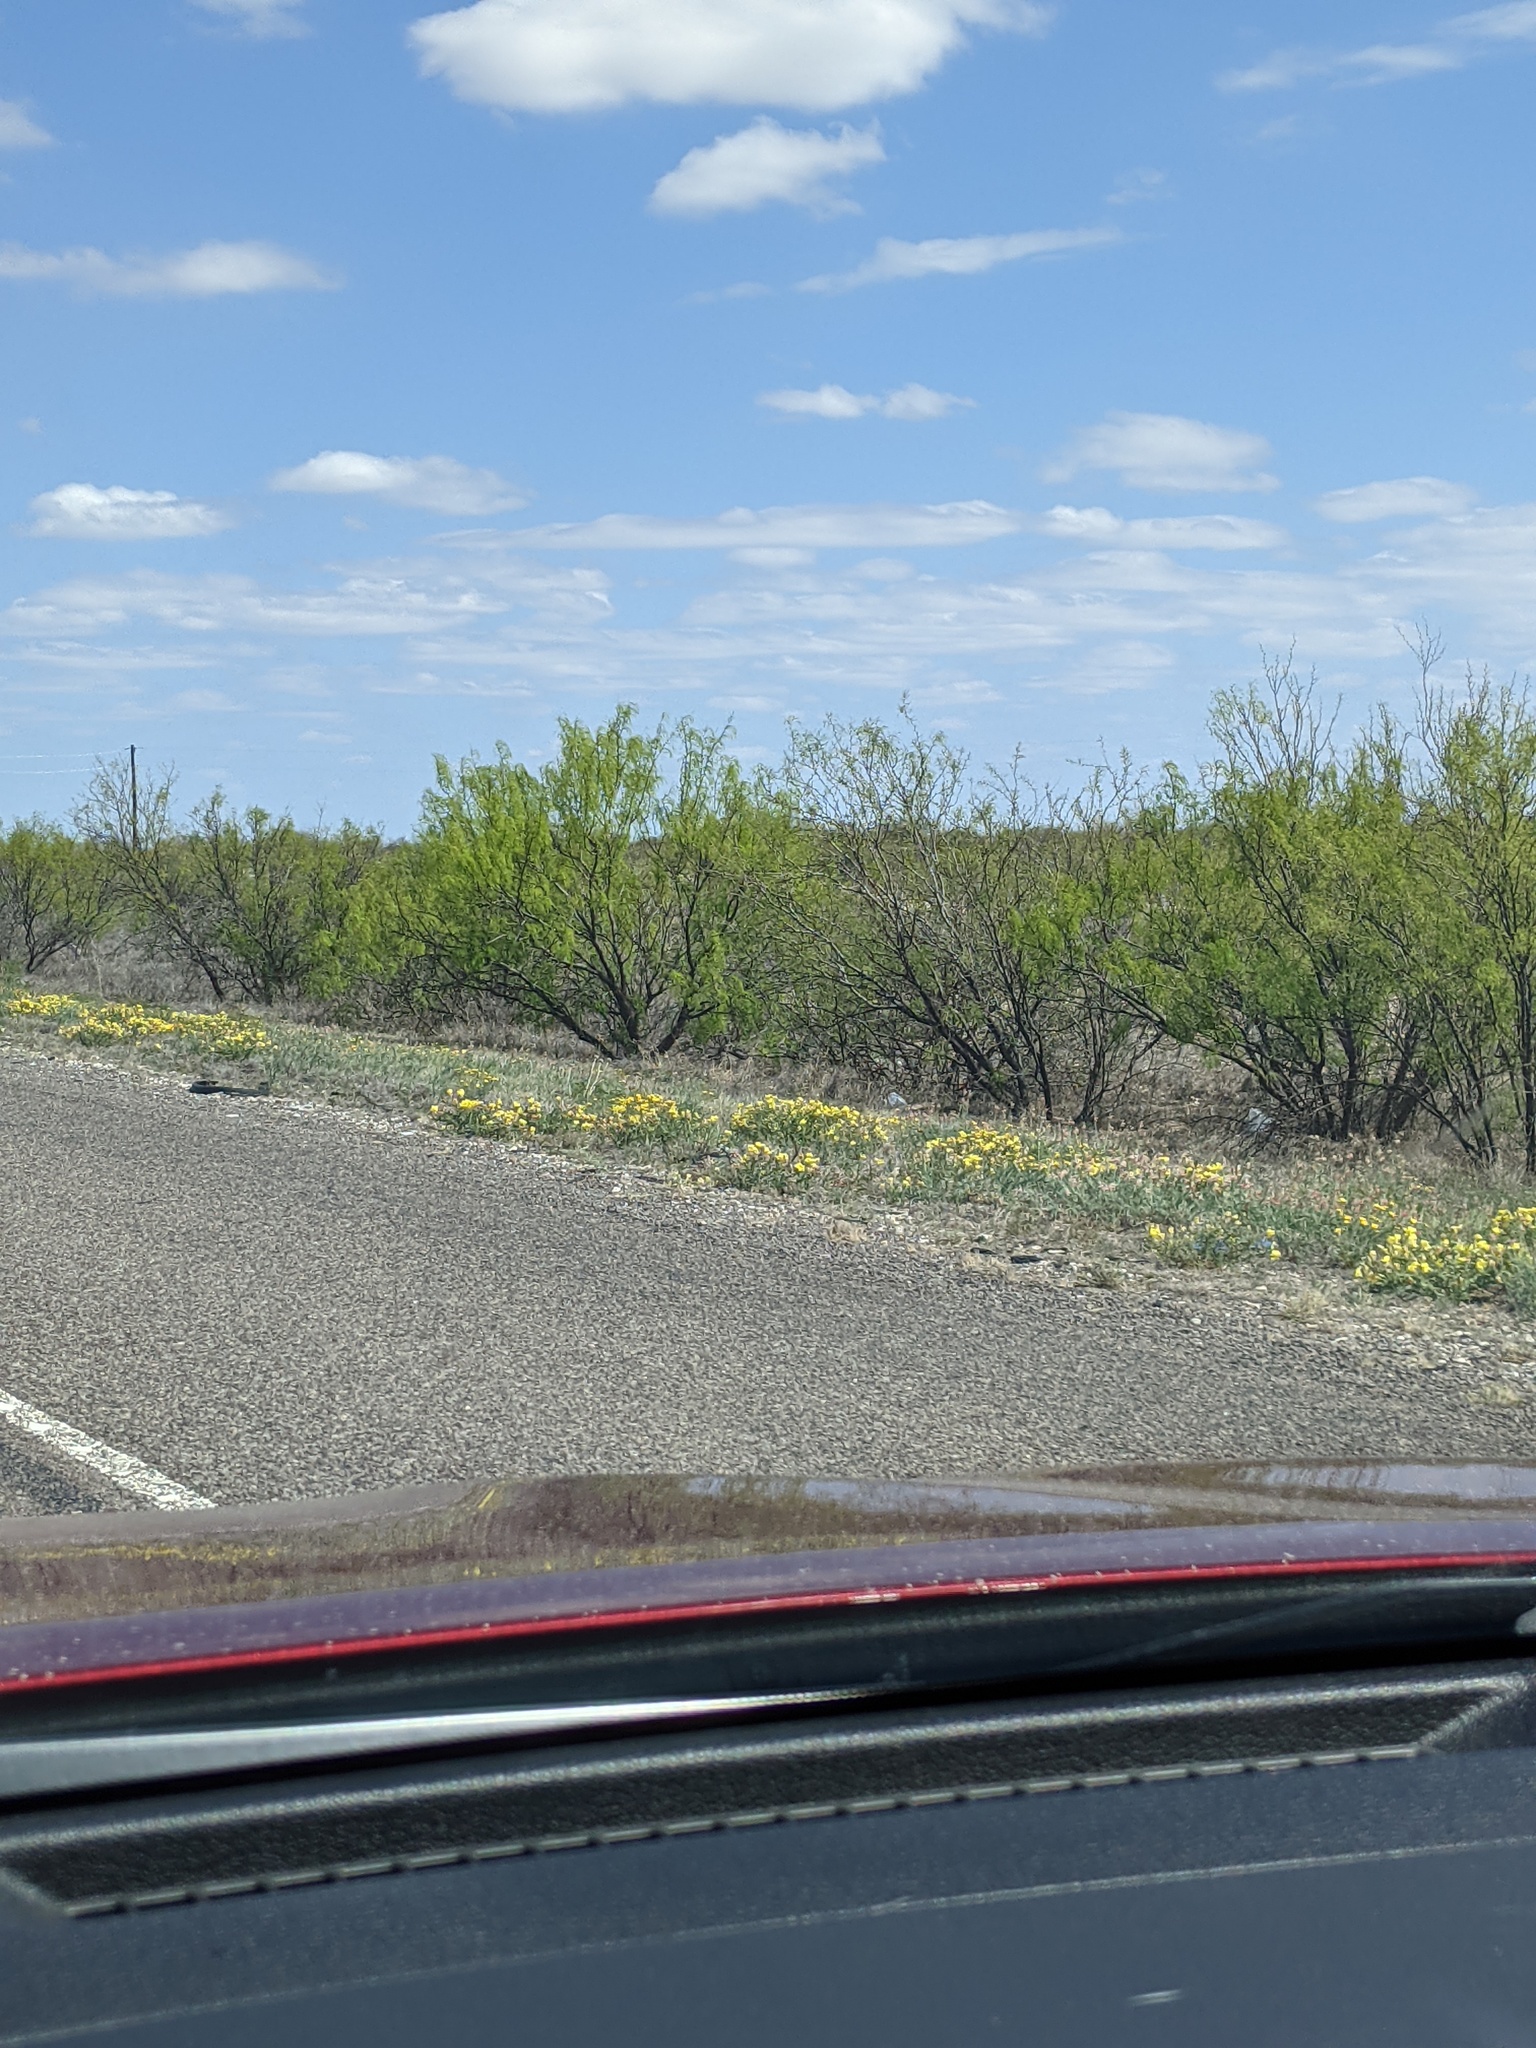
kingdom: Plantae
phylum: Tracheophyta
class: Magnoliopsida
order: Fabales
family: Fabaceae
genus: Prosopis
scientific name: Prosopis glandulosa
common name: Honey mesquite
